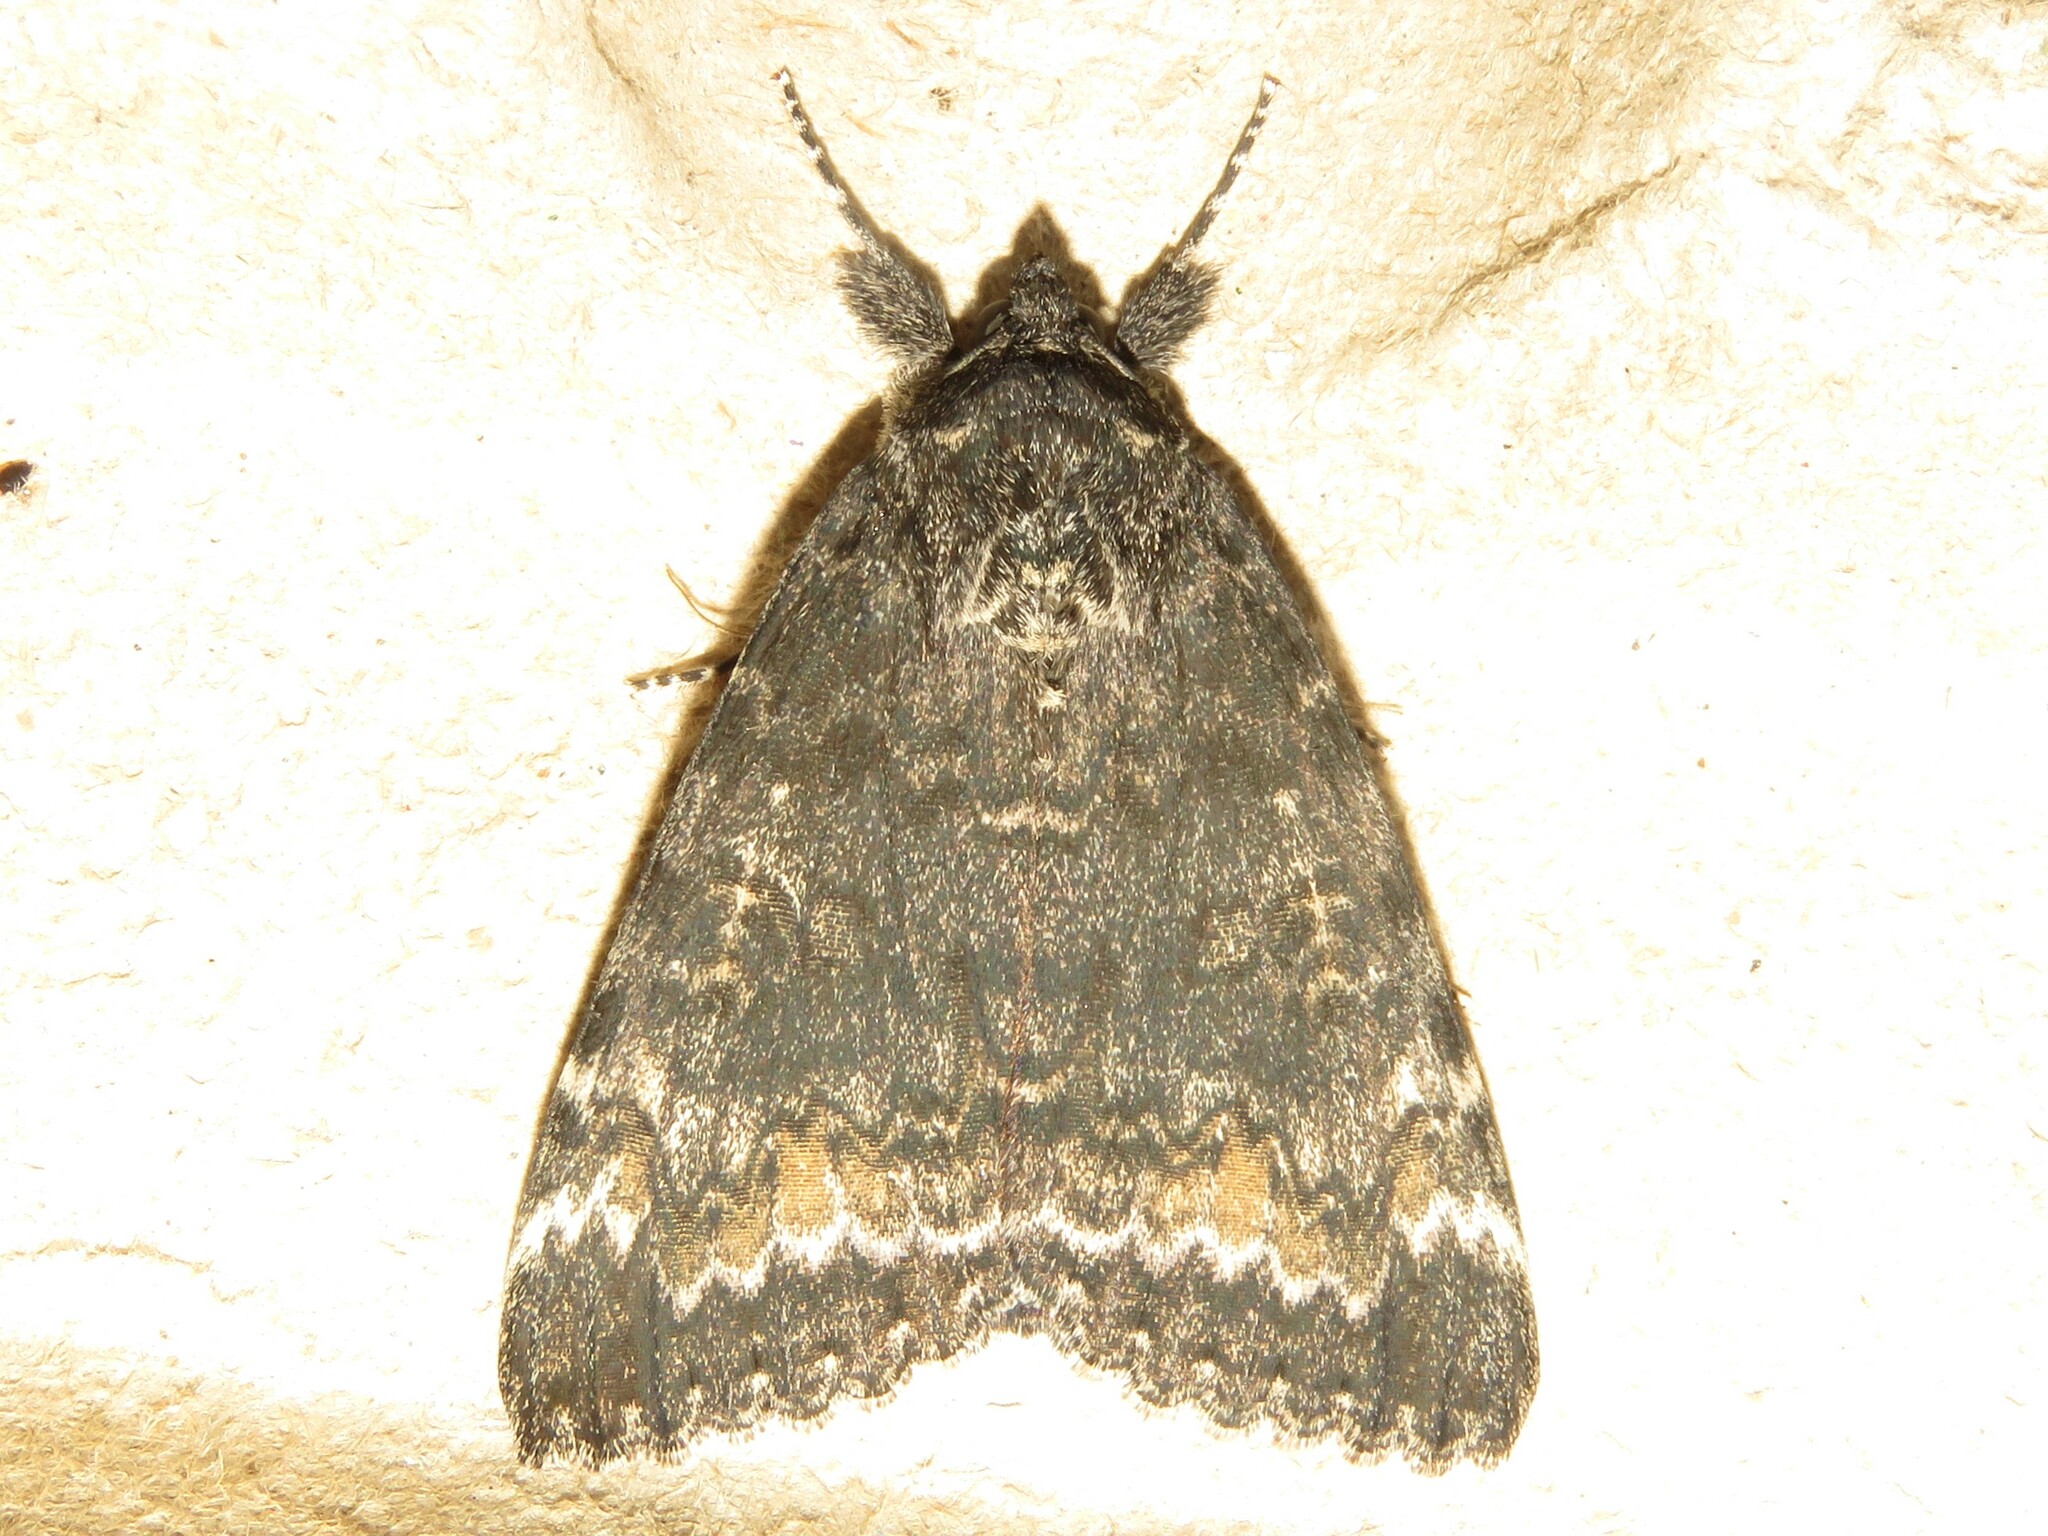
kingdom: Animalia
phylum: Arthropoda
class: Insecta
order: Lepidoptera
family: Erebidae
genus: Catocala
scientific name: Catocala briseis
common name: Briseis underwing
